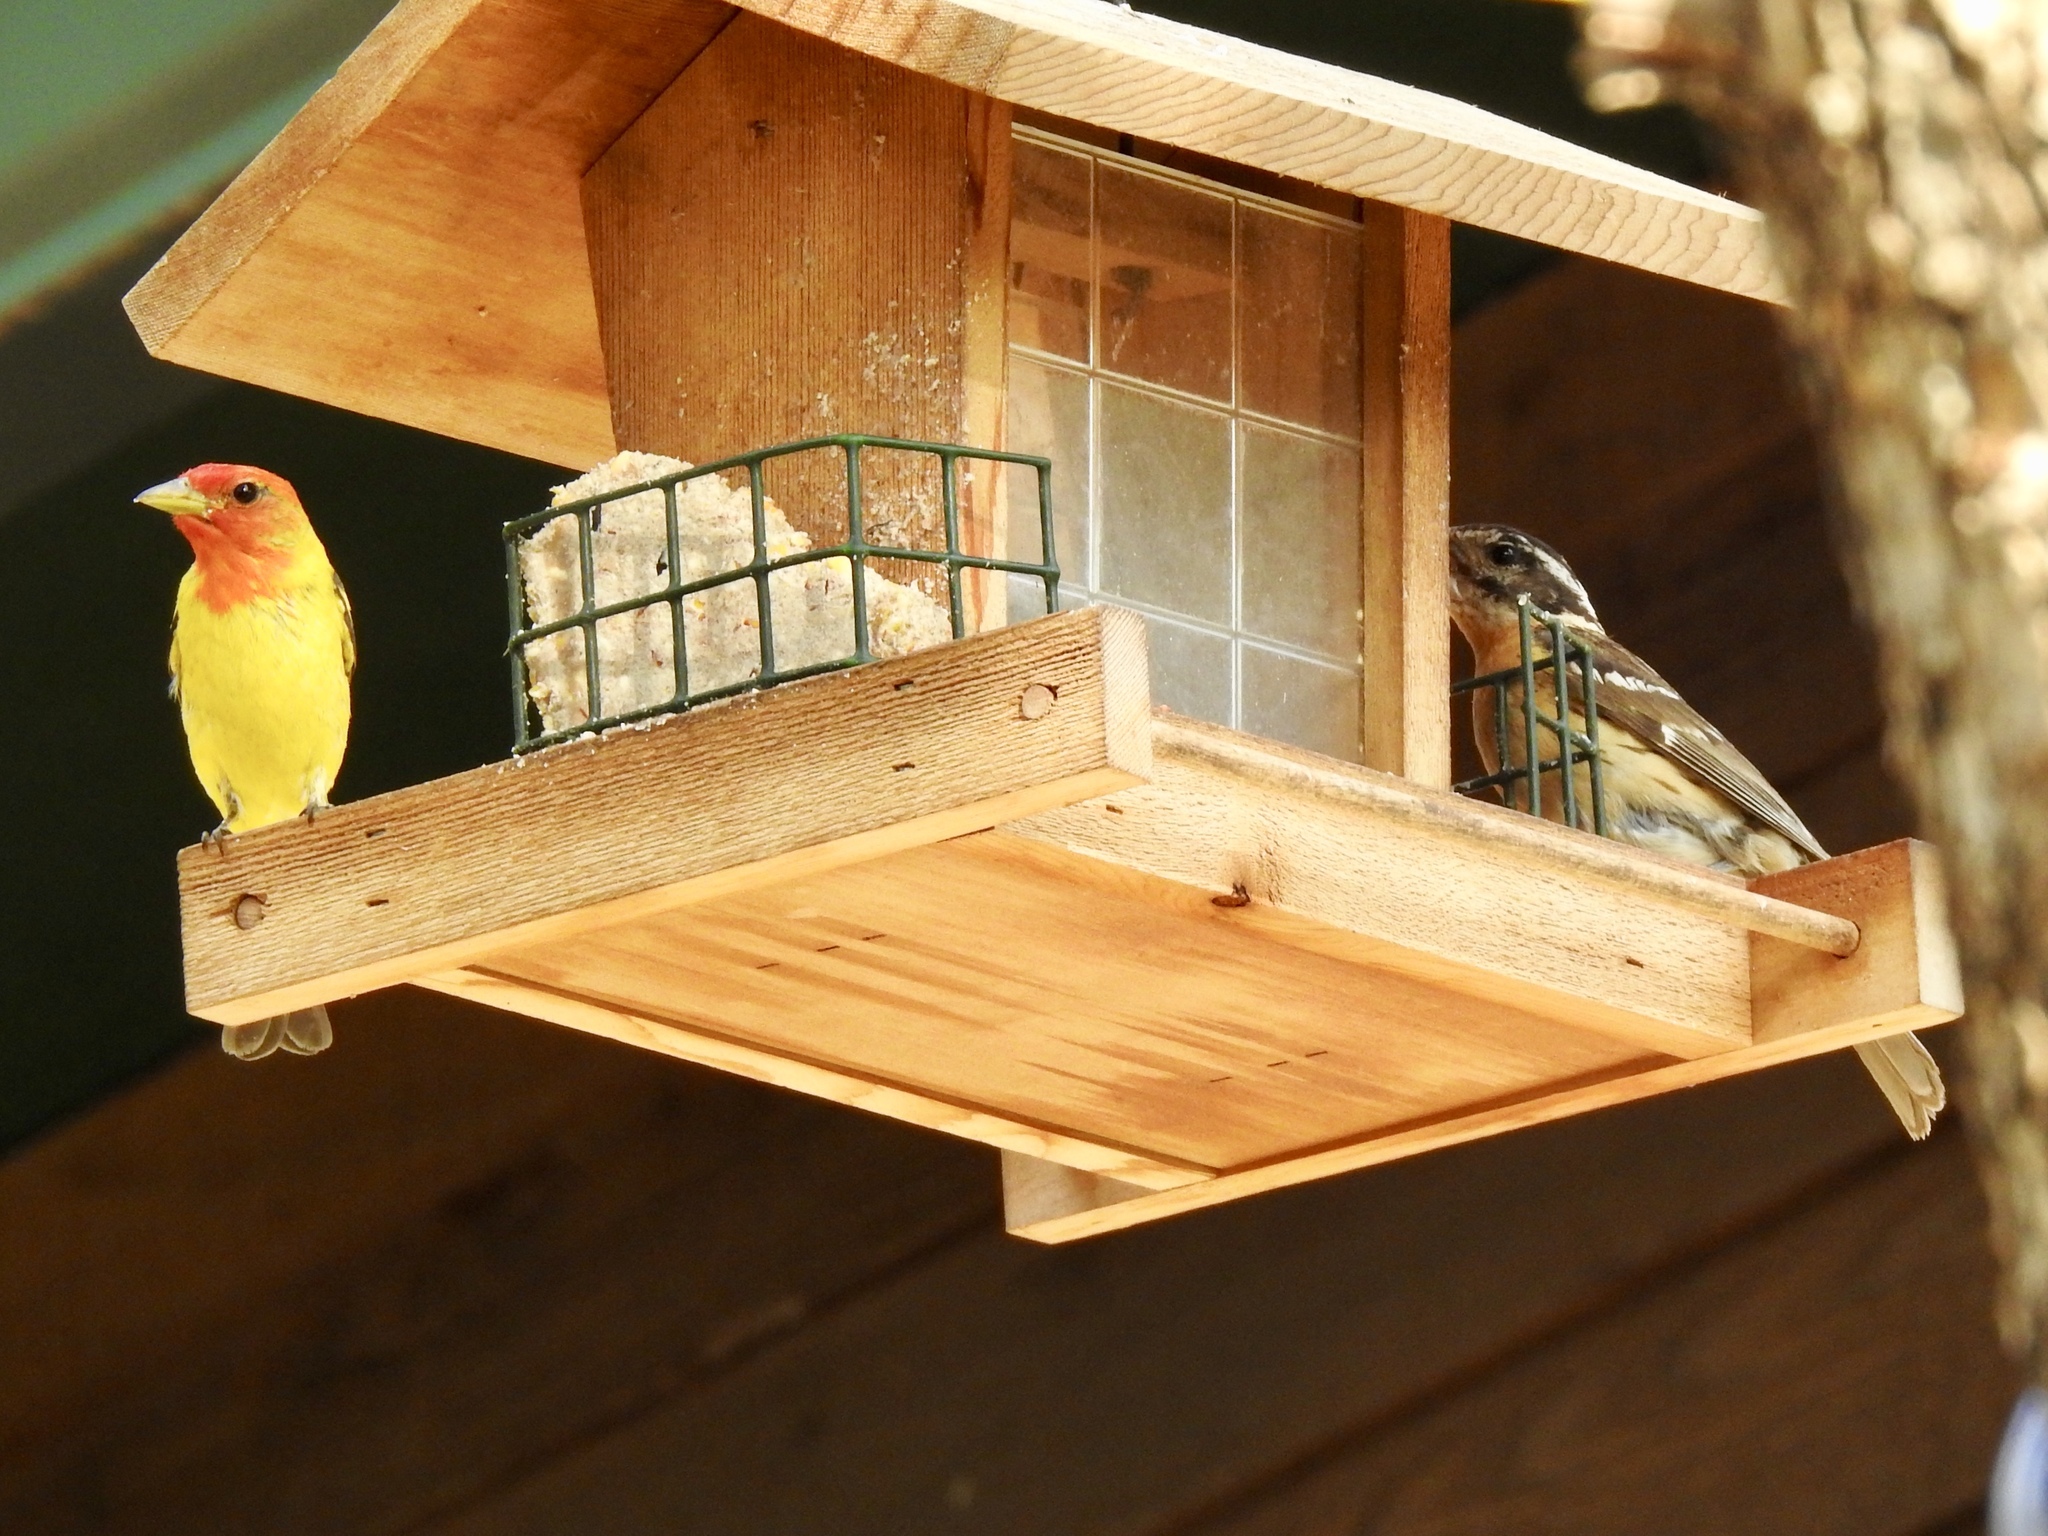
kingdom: Animalia
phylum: Chordata
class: Aves
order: Passeriformes
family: Cardinalidae
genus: Piranga
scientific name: Piranga ludoviciana
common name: Western tanager
